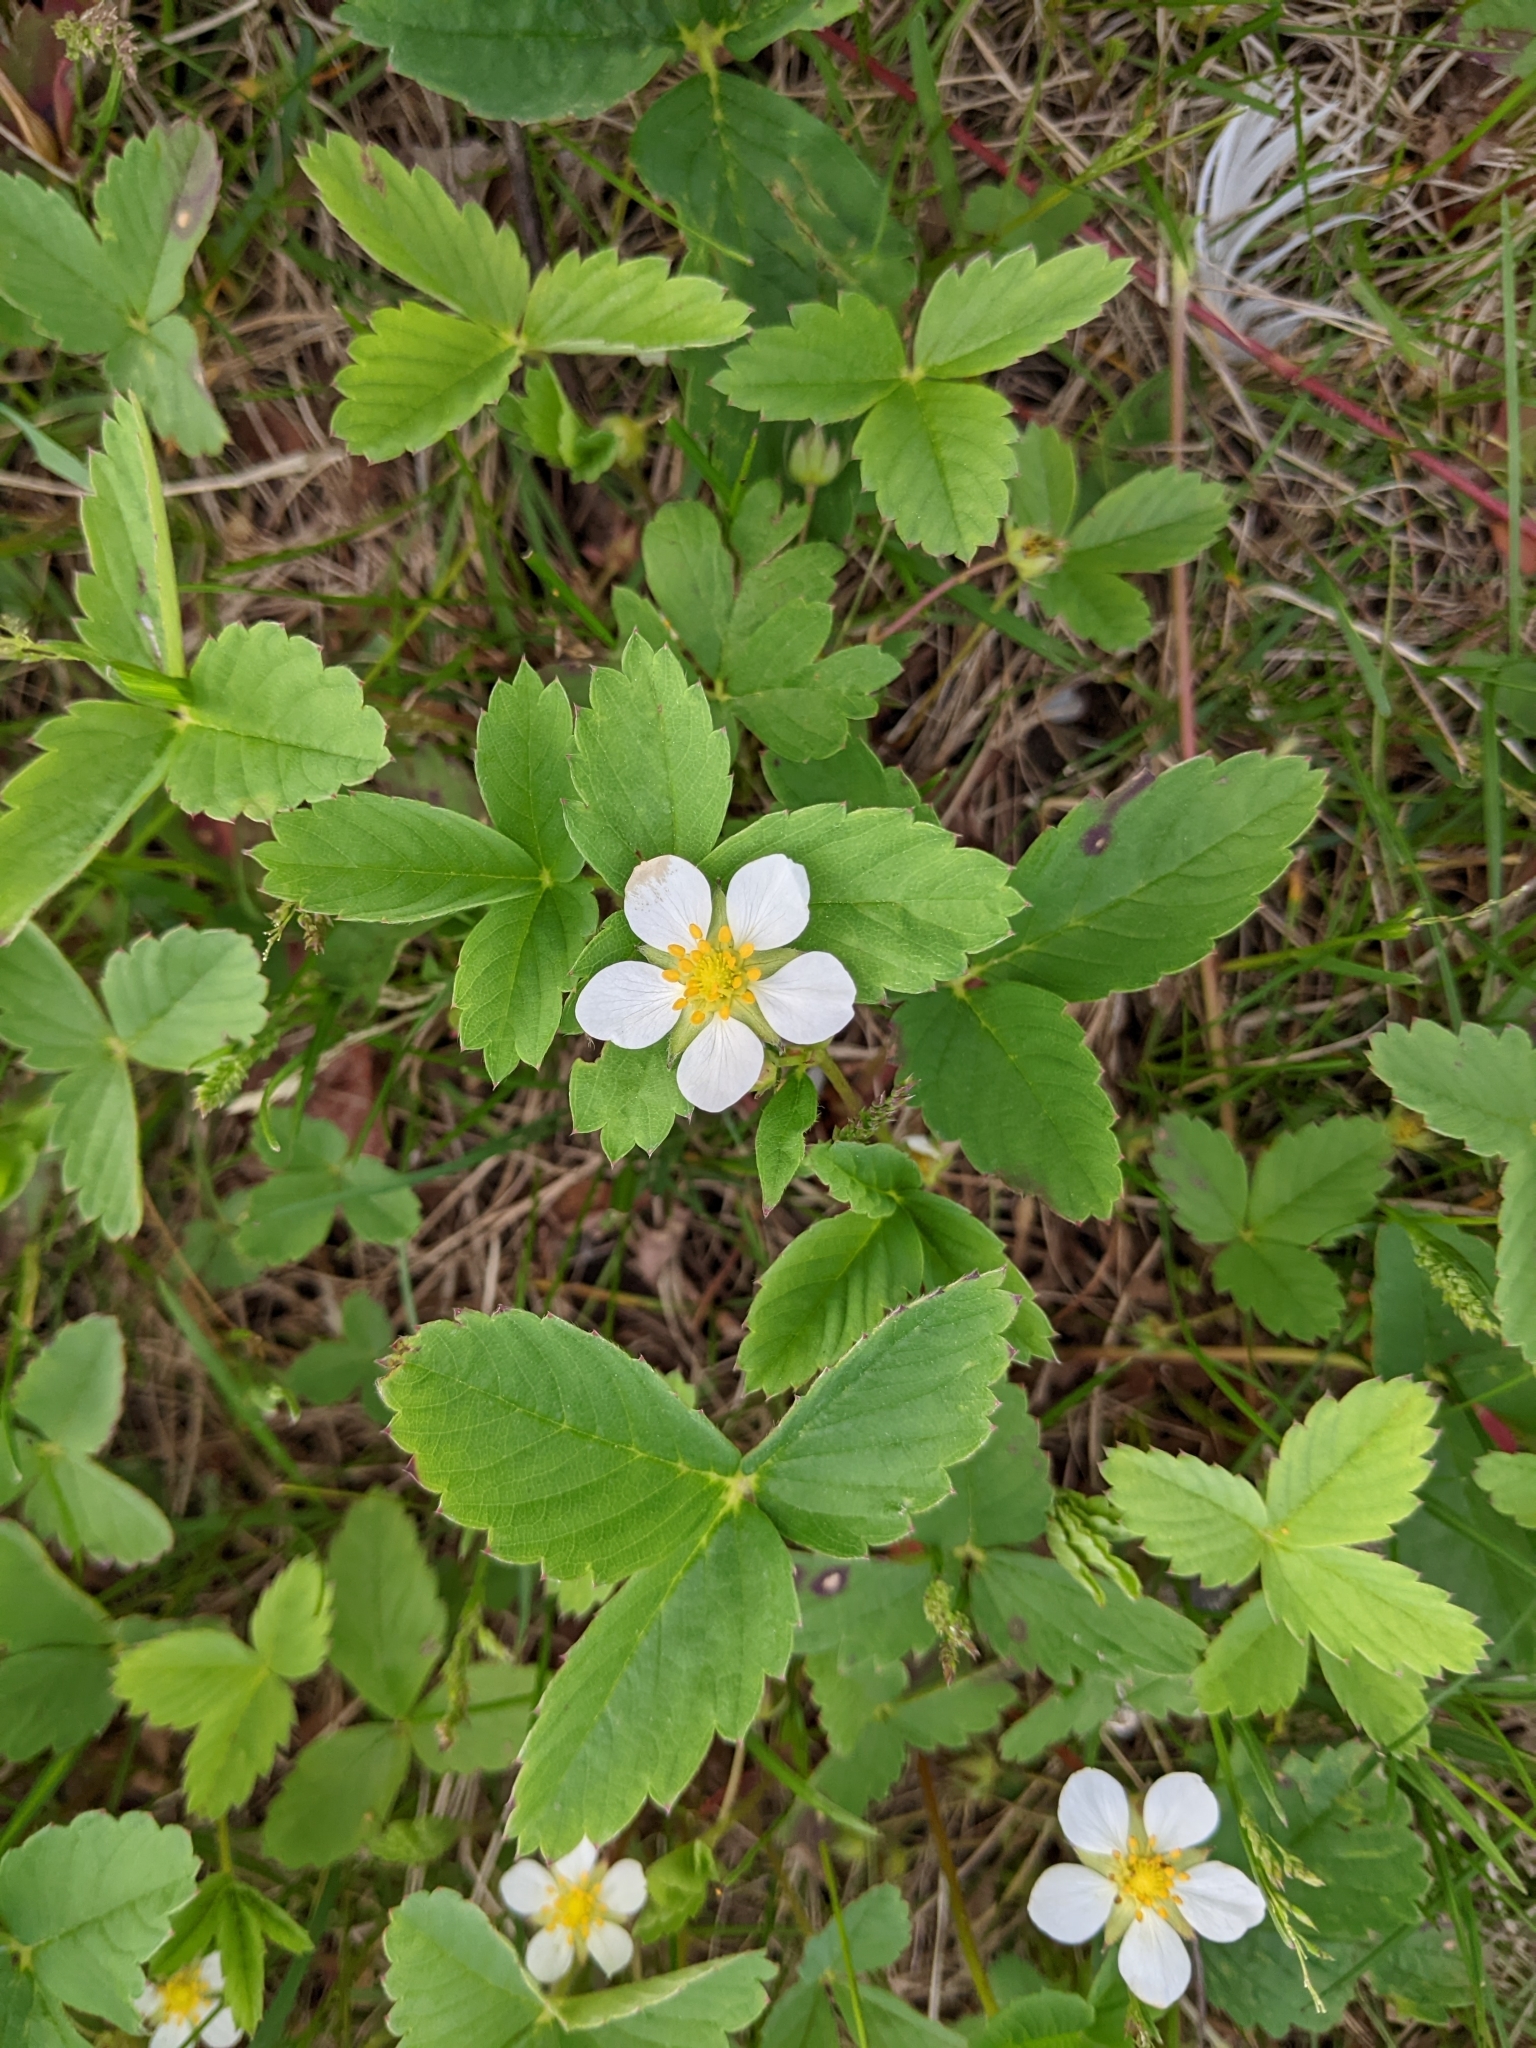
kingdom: Plantae
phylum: Tracheophyta
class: Magnoliopsida
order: Rosales
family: Rosaceae
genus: Fragaria
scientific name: Fragaria virginiana
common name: Thickleaved wild strawberry
